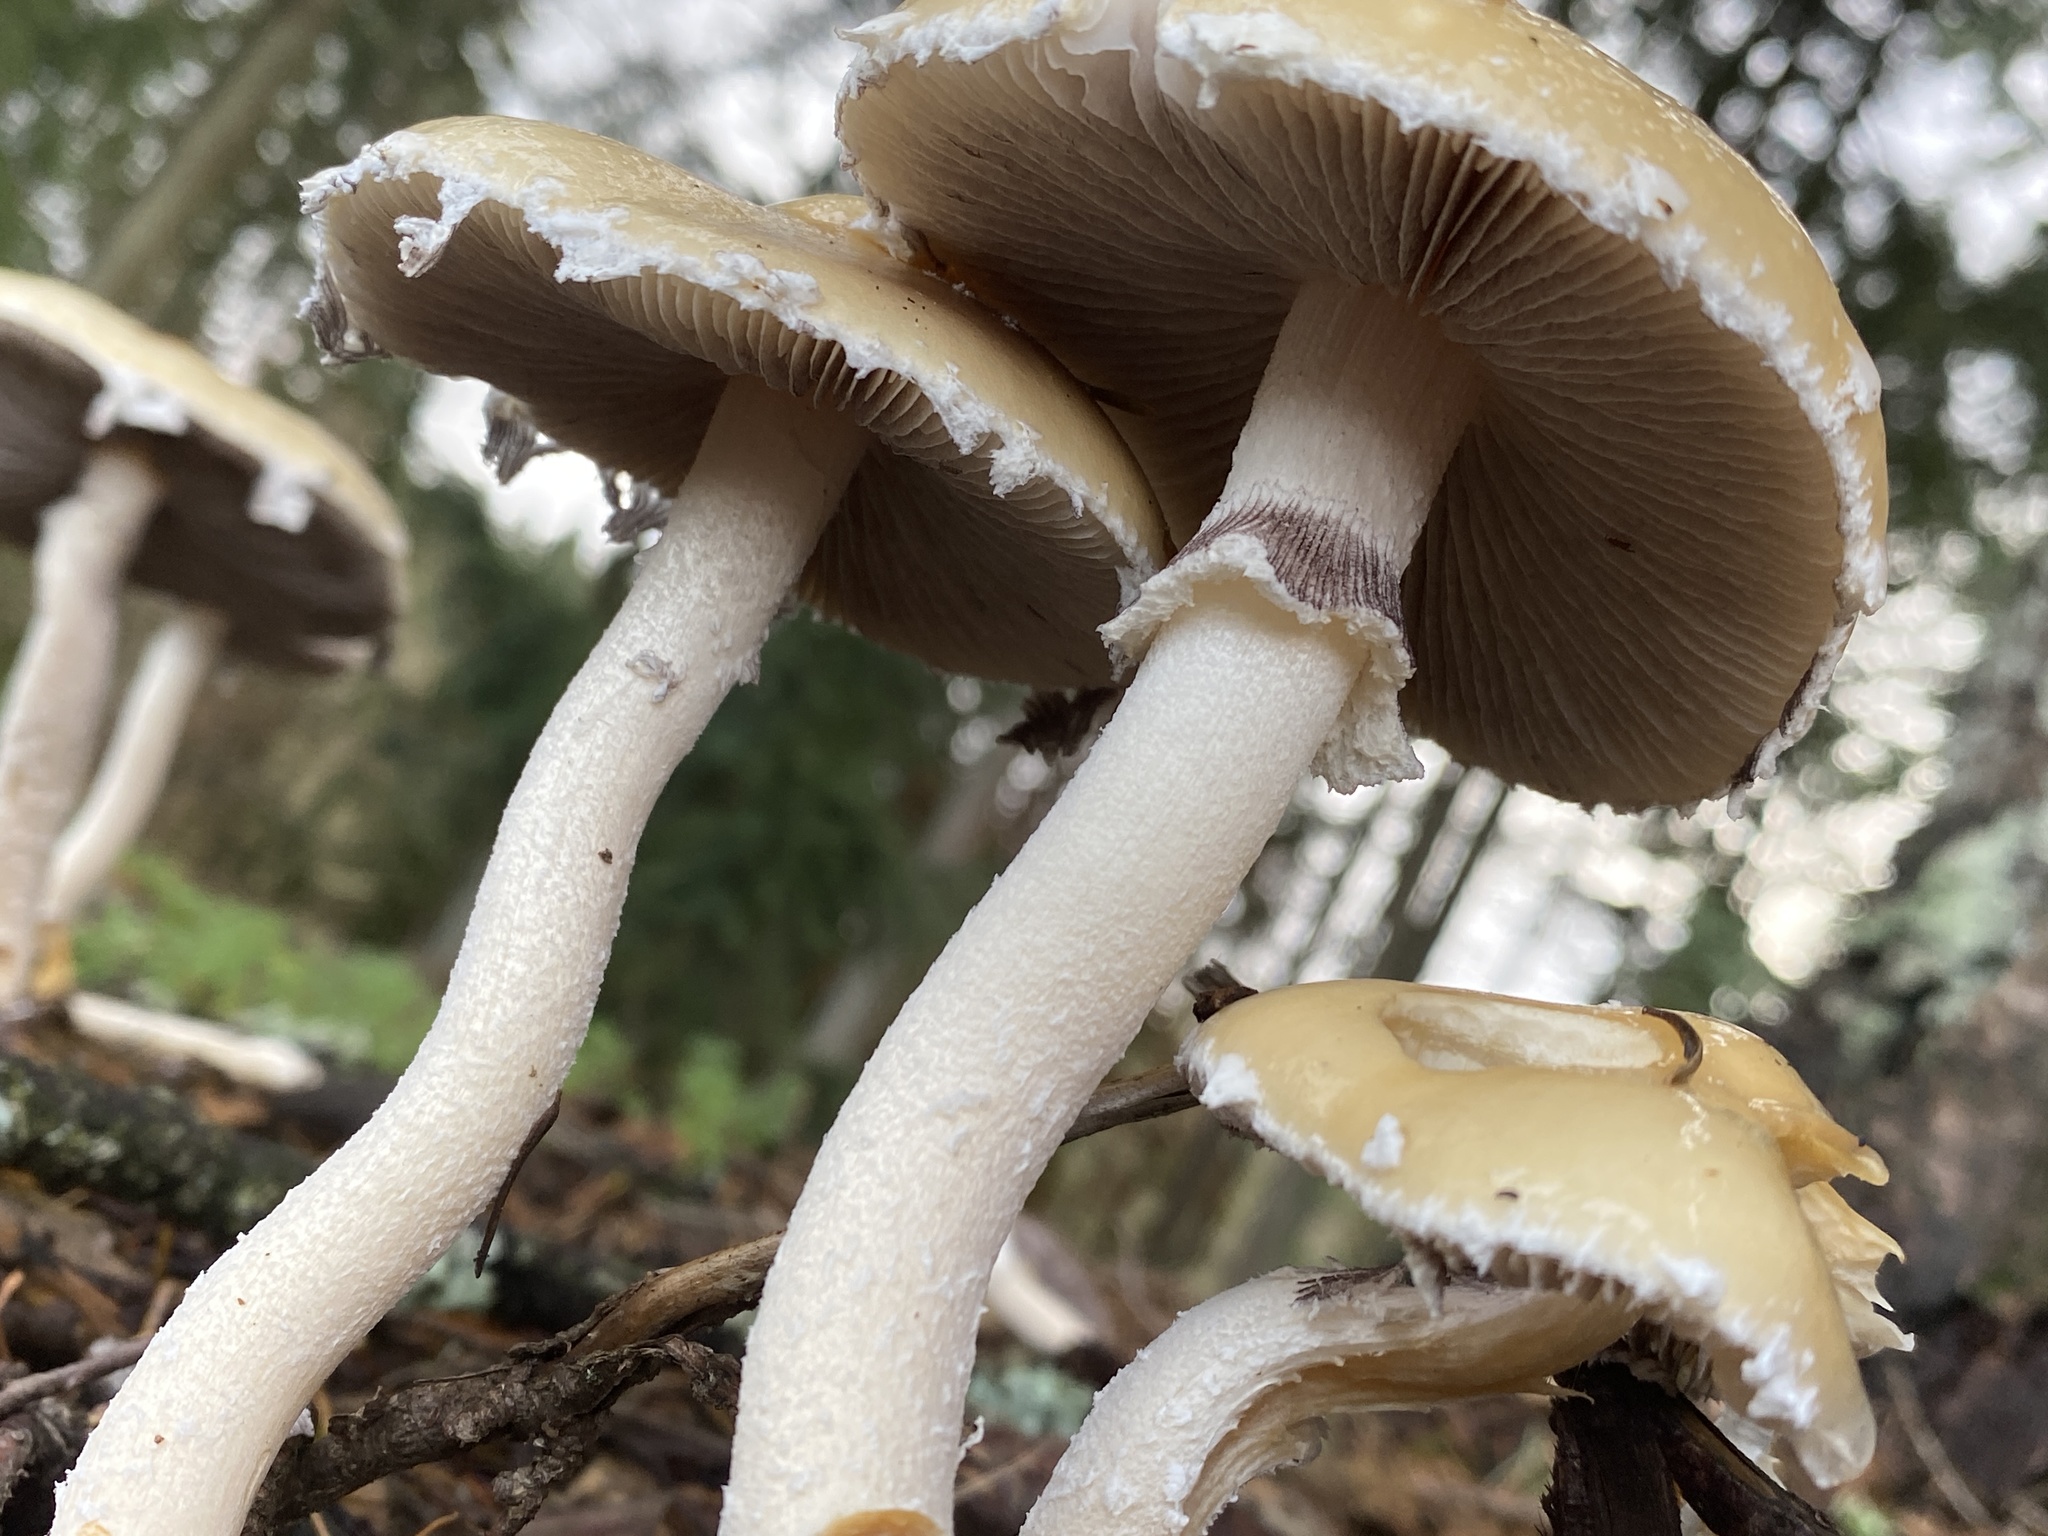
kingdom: Fungi
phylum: Basidiomycota
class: Agaricomycetes
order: Agaricales
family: Strophariaceae
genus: Stropharia
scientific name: Stropharia ambigua
